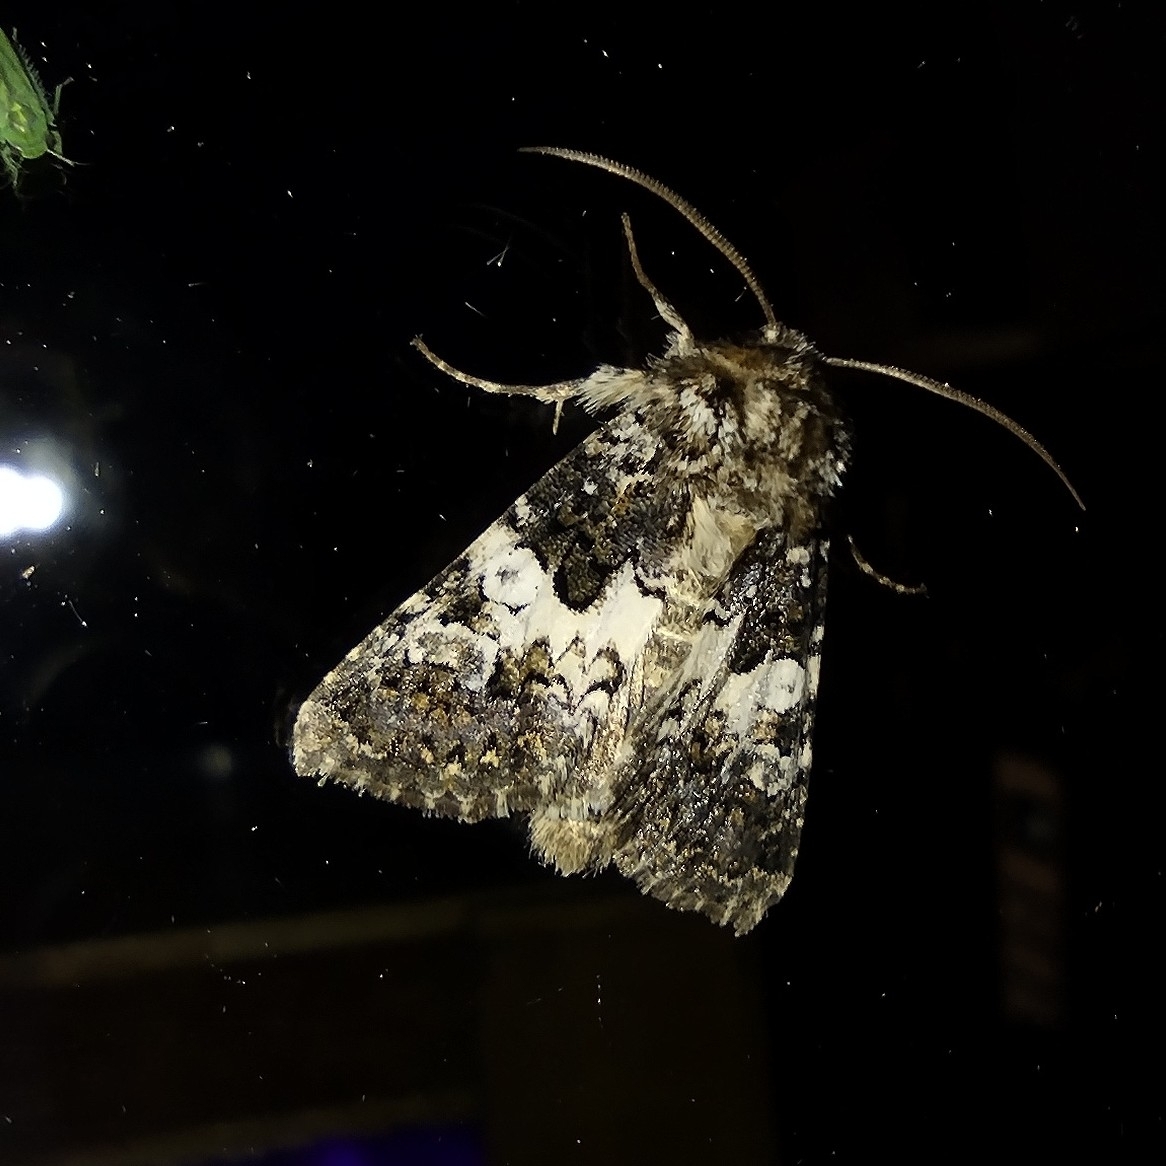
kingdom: Animalia
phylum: Arthropoda
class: Insecta
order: Lepidoptera
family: Noctuidae
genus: Hadena
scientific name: Hadena compta
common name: Varied coronet
